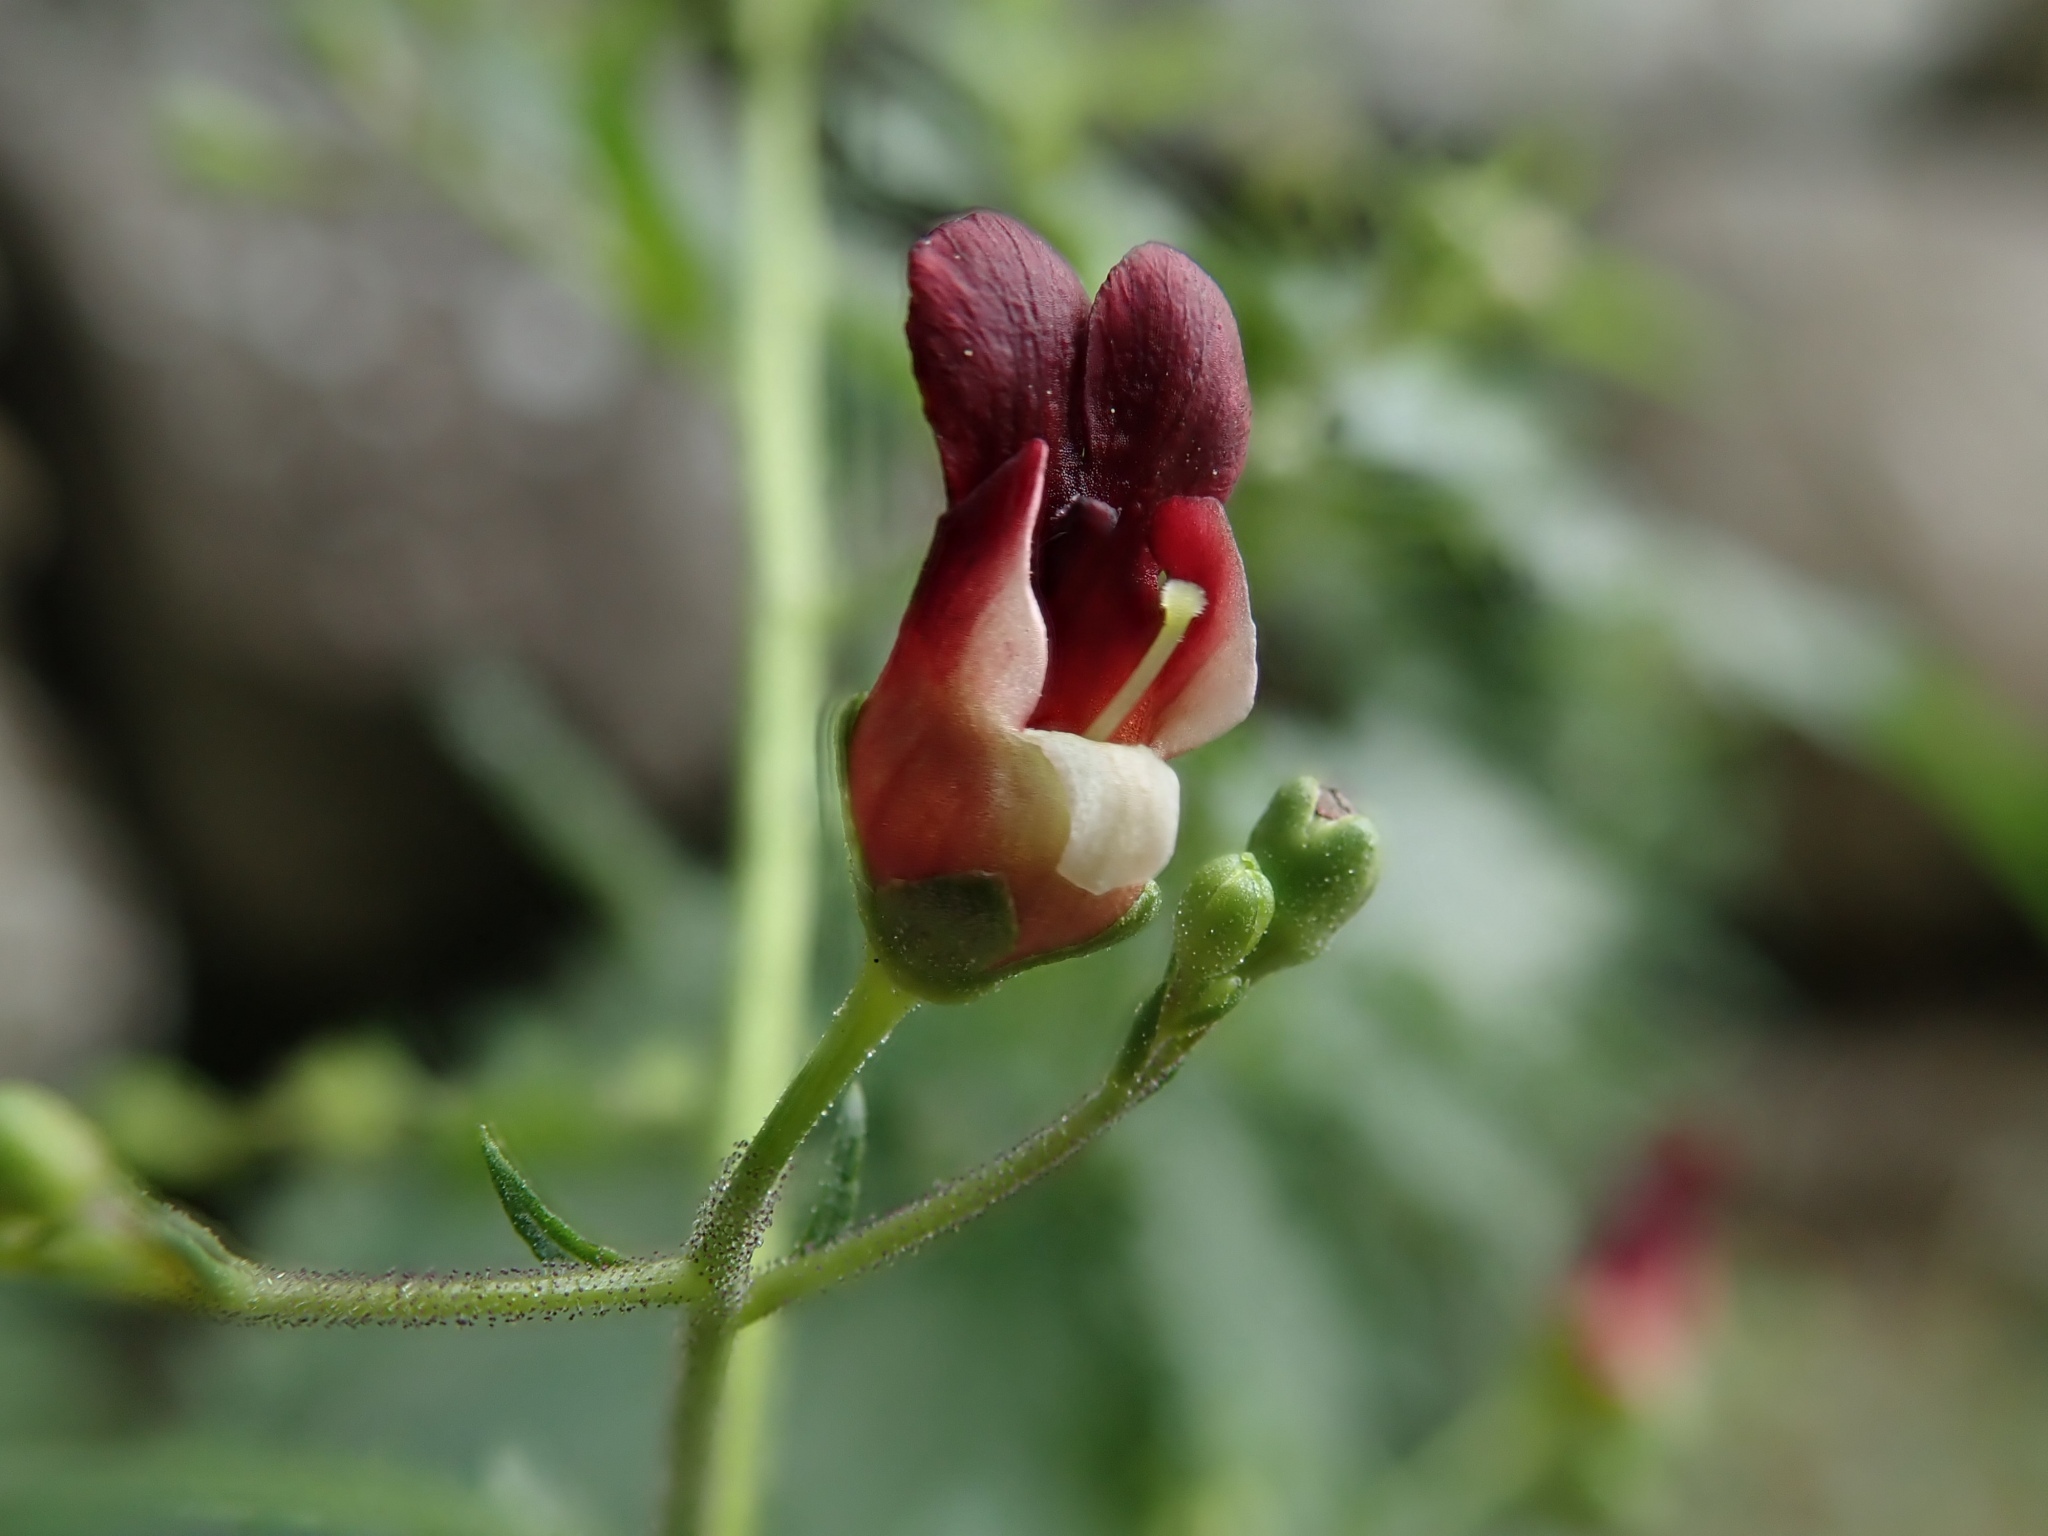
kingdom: Plantae
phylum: Tracheophyta
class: Magnoliopsida
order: Lamiales
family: Scrophulariaceae
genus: Scrophularia
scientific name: Scrophularia californica
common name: California figwort
